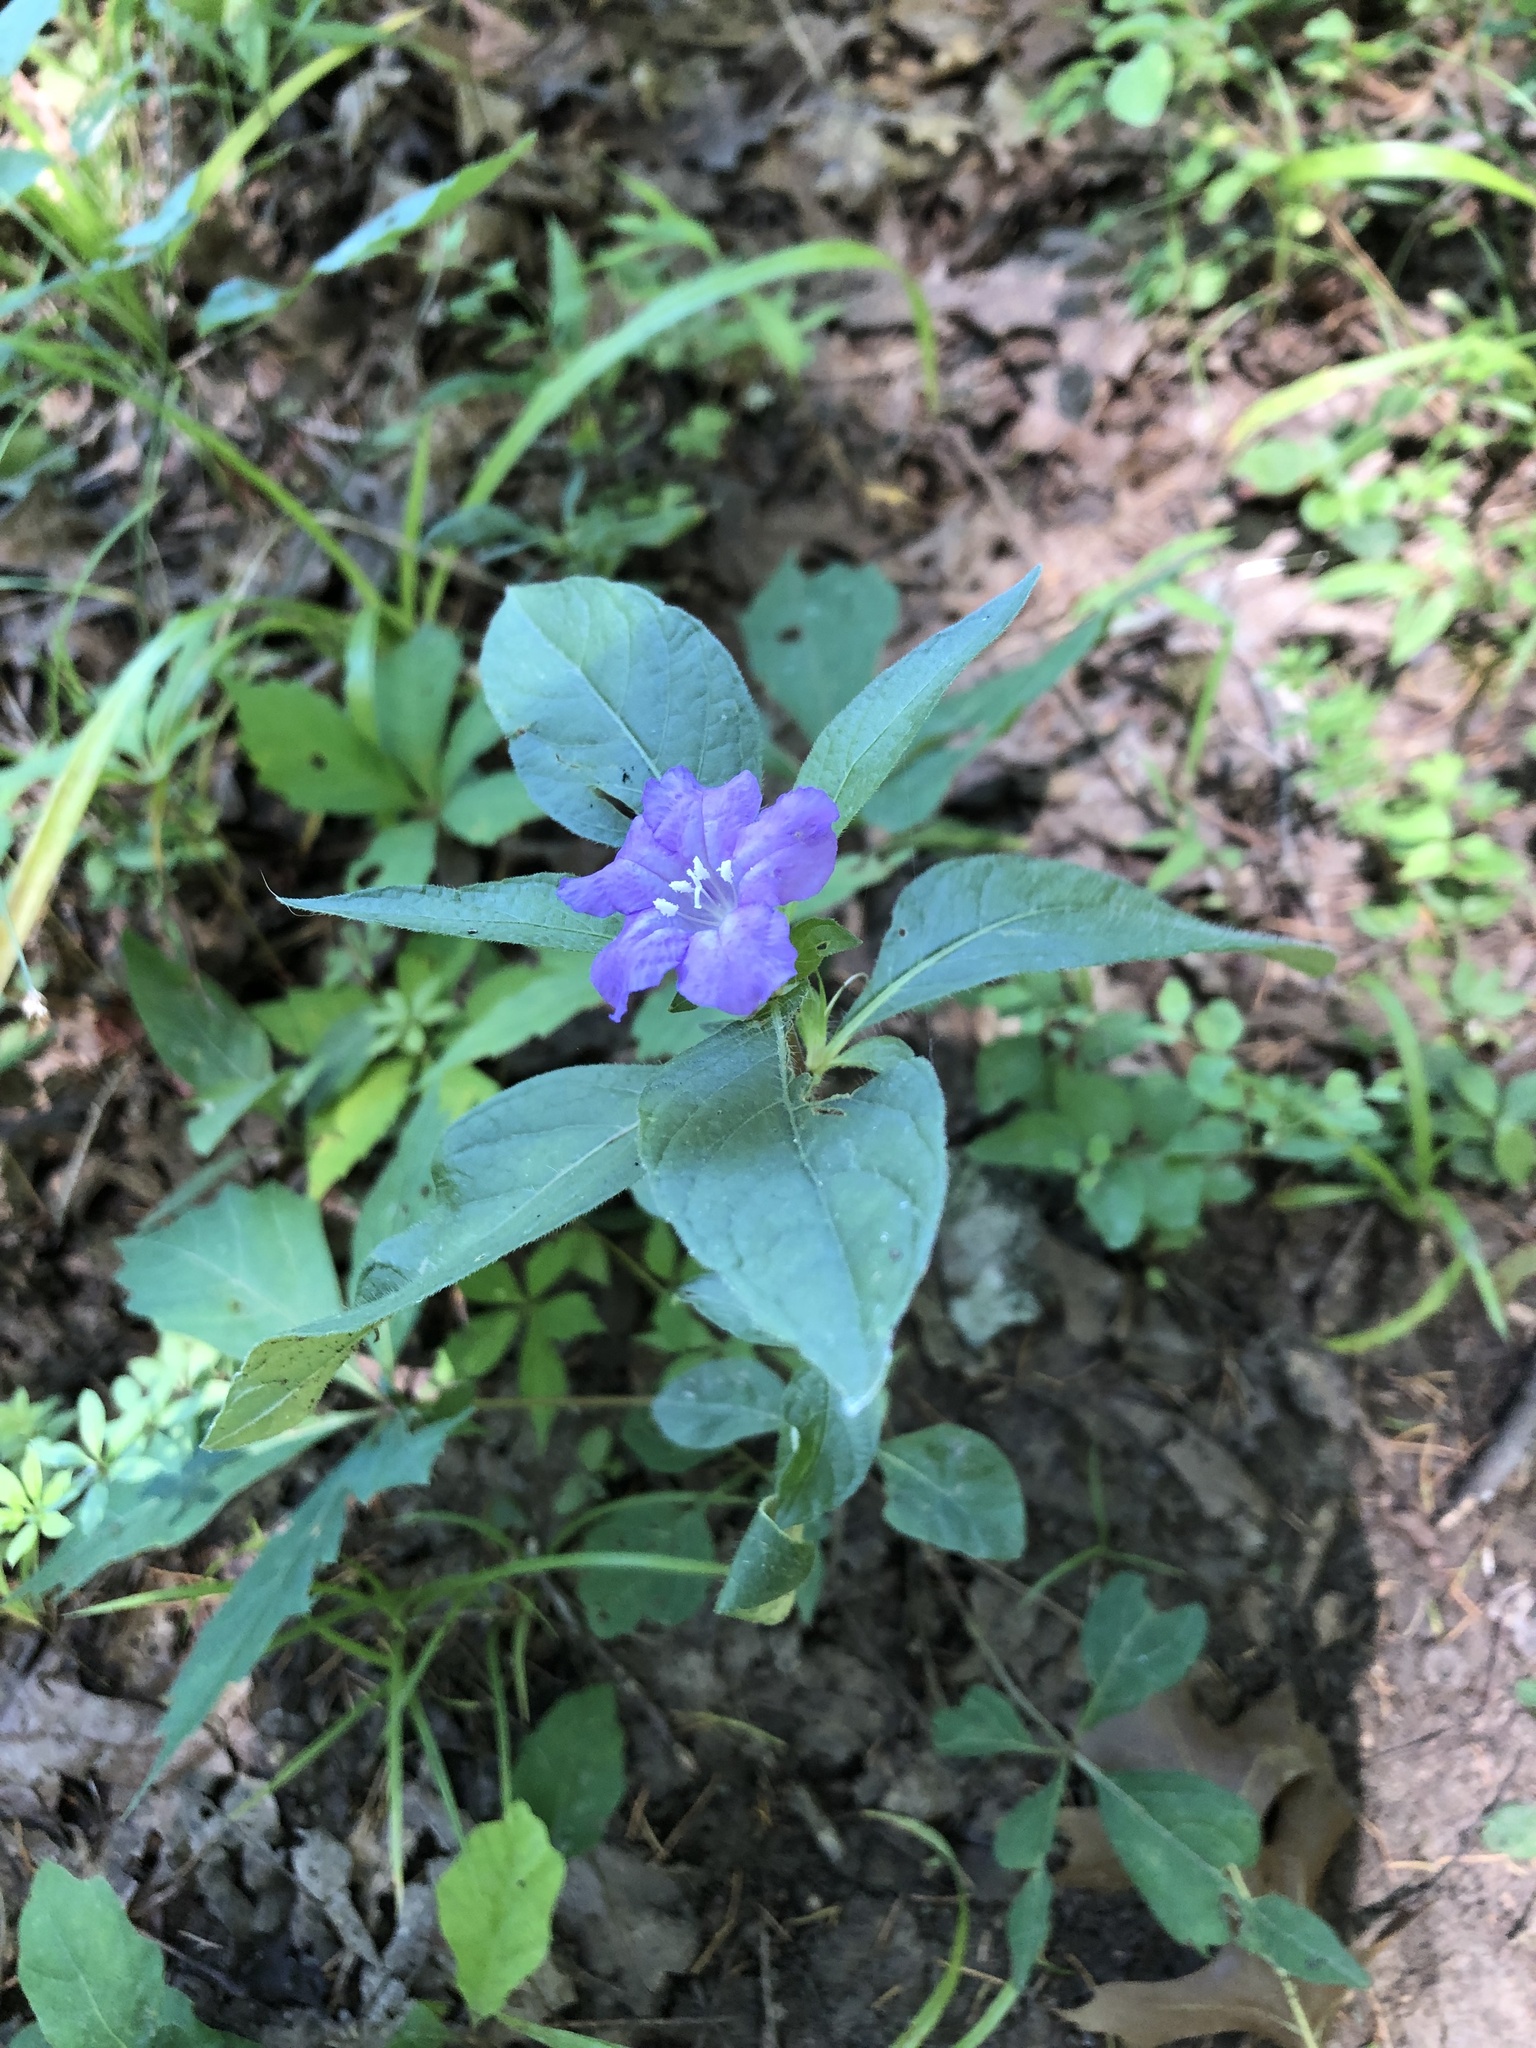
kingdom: Plantae
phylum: Tracheophyta
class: Magnoliopsida
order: Lamiales
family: Acanthaceae
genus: Ruellia
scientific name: Ruellia caroliniensis
